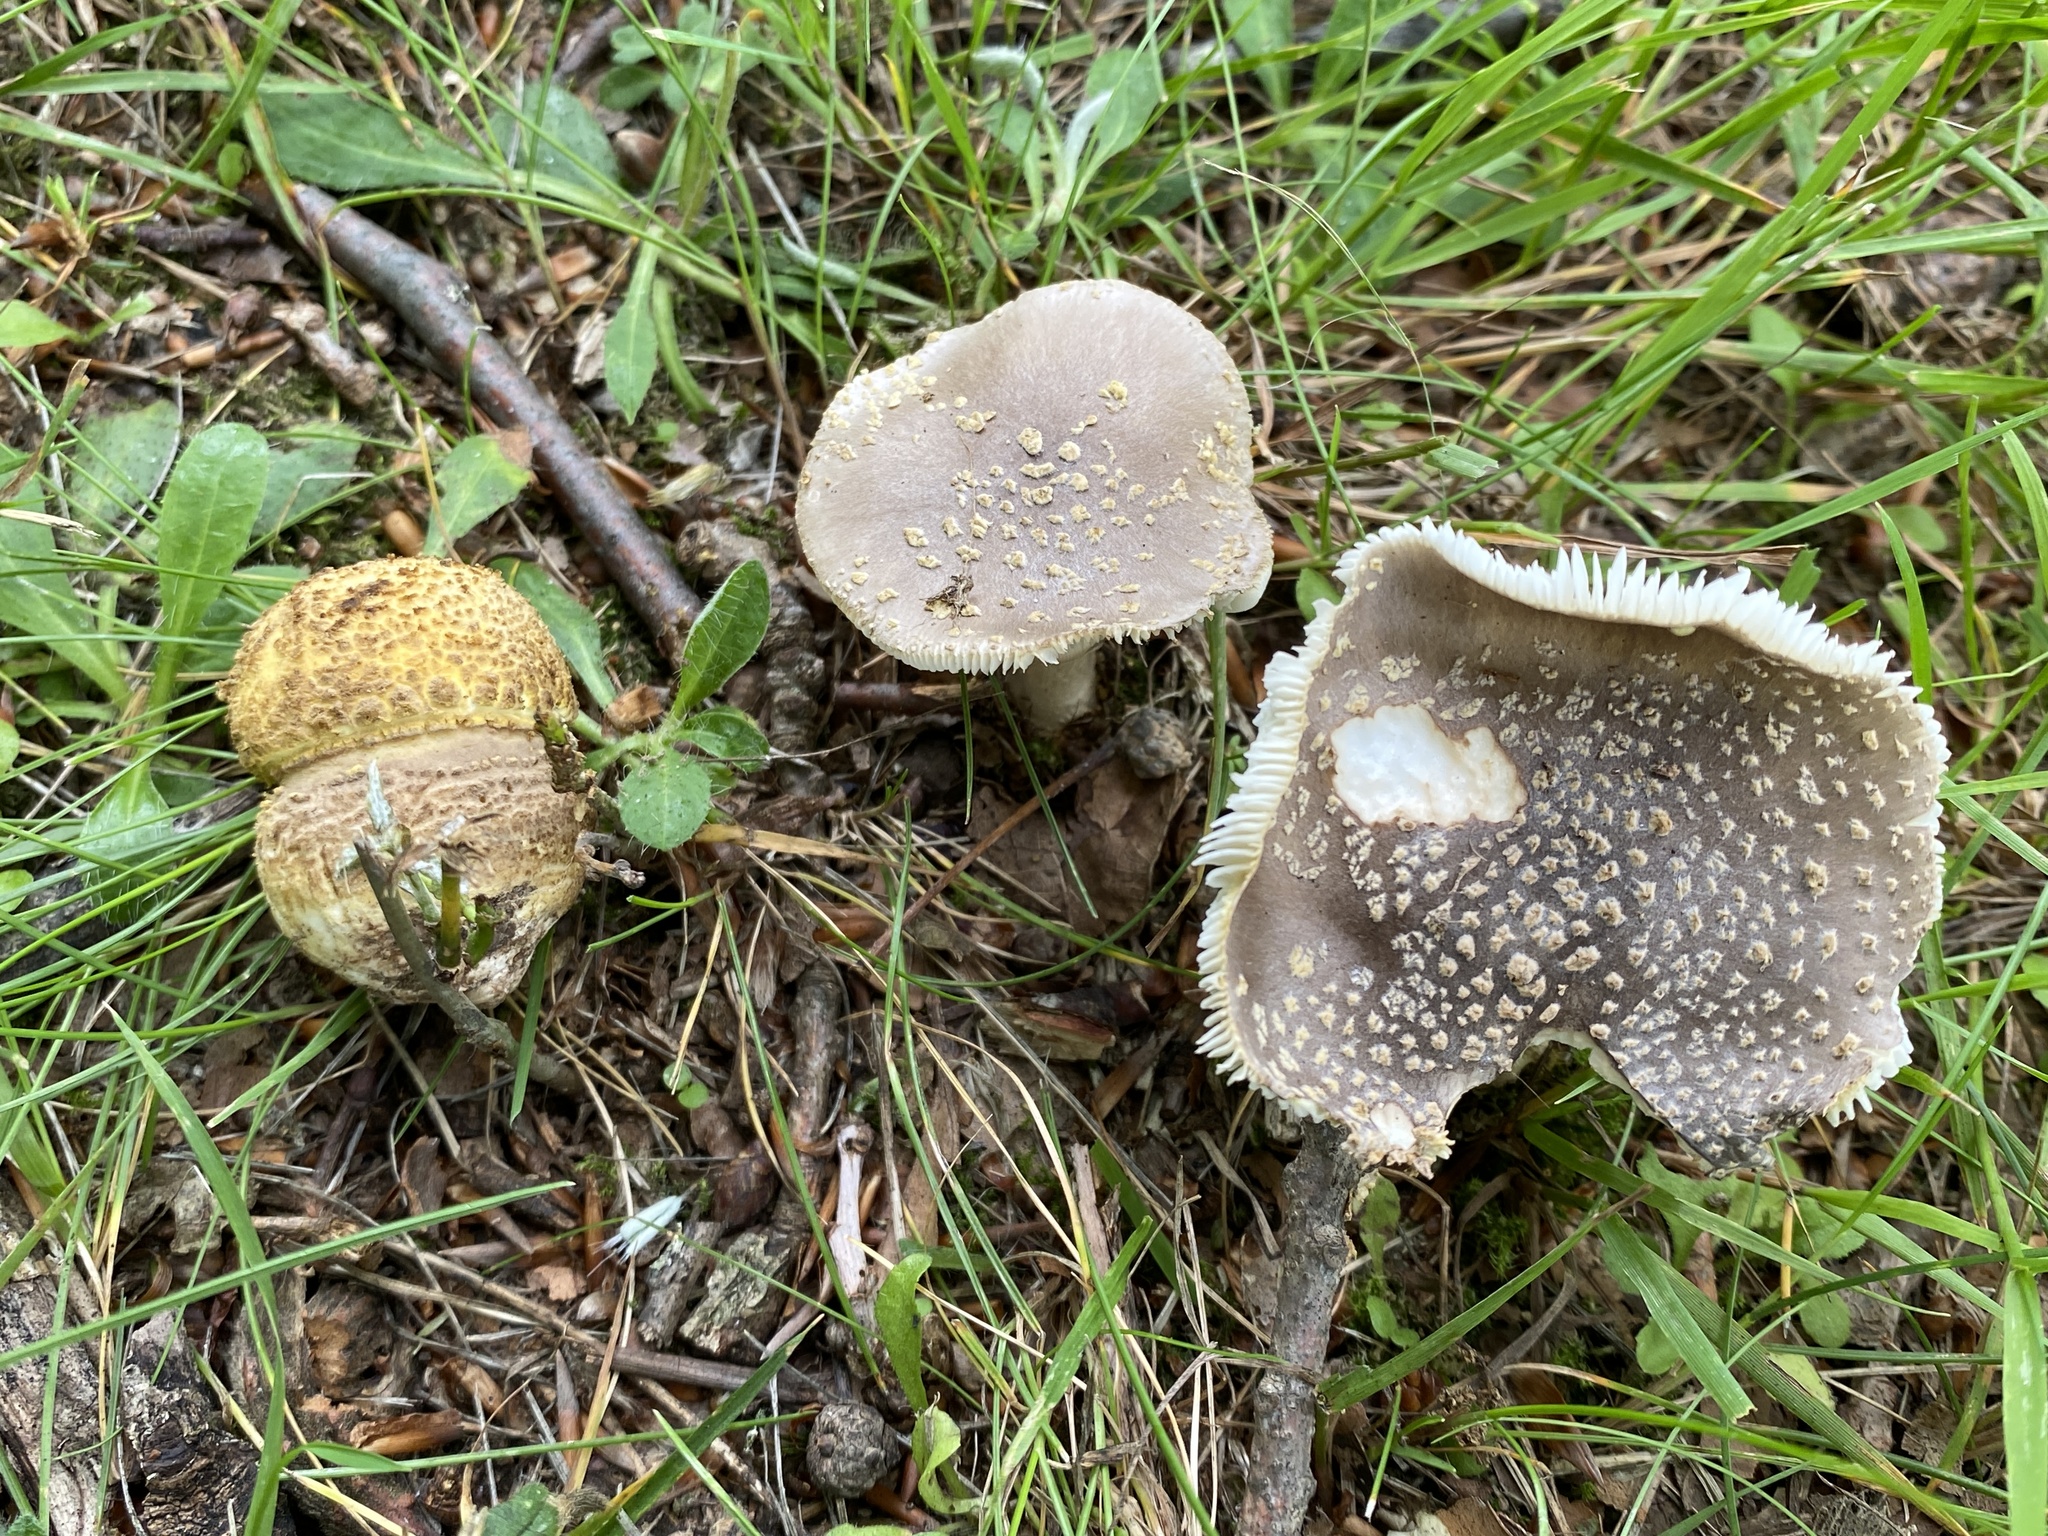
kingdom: Fungi
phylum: Basidiomycota
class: Agaricomycetes
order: Agaricales
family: Amanitaceae
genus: Amanita
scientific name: Amanita franchetii
